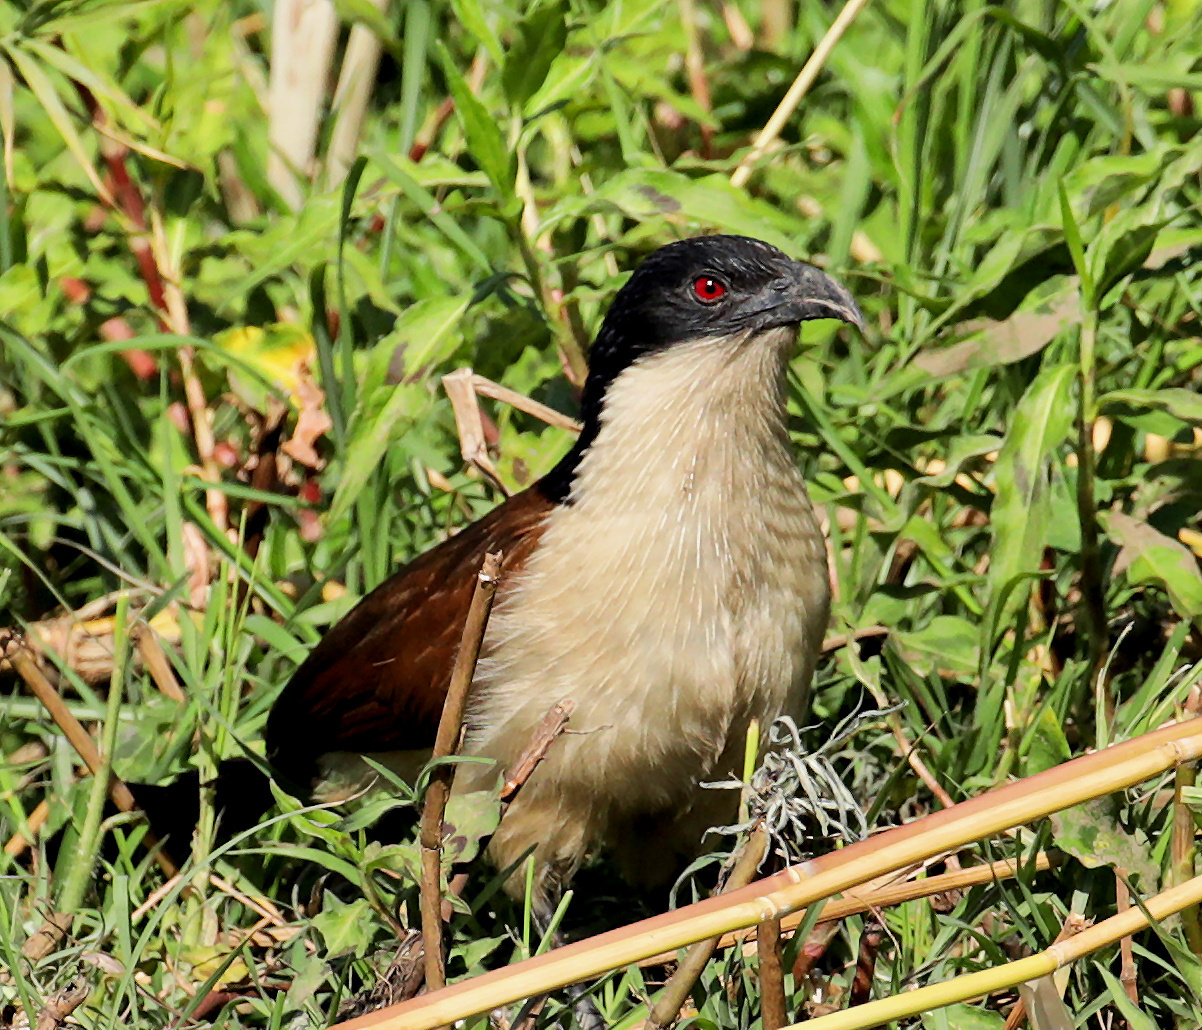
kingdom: Animalia
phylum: Chordata
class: Aves
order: Cuculiformes
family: Cuculidae
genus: Centropus
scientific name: Centropus cupreicaudus
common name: Coppery-tailed coucal
